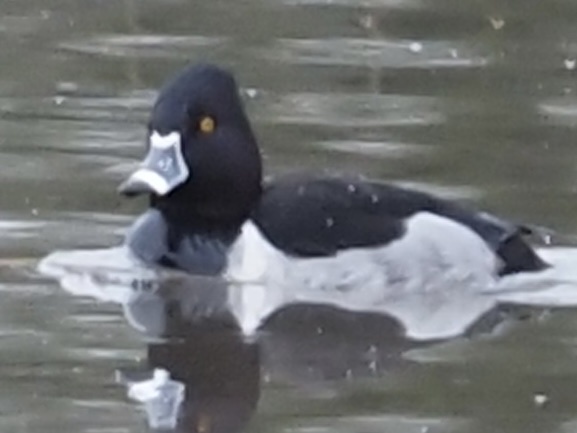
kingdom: Animalia
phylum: Chordata
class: Aves
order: Anseriformes
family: Anatidae
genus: Aythya
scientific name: Aythya collaris
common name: Ring-necked duck
